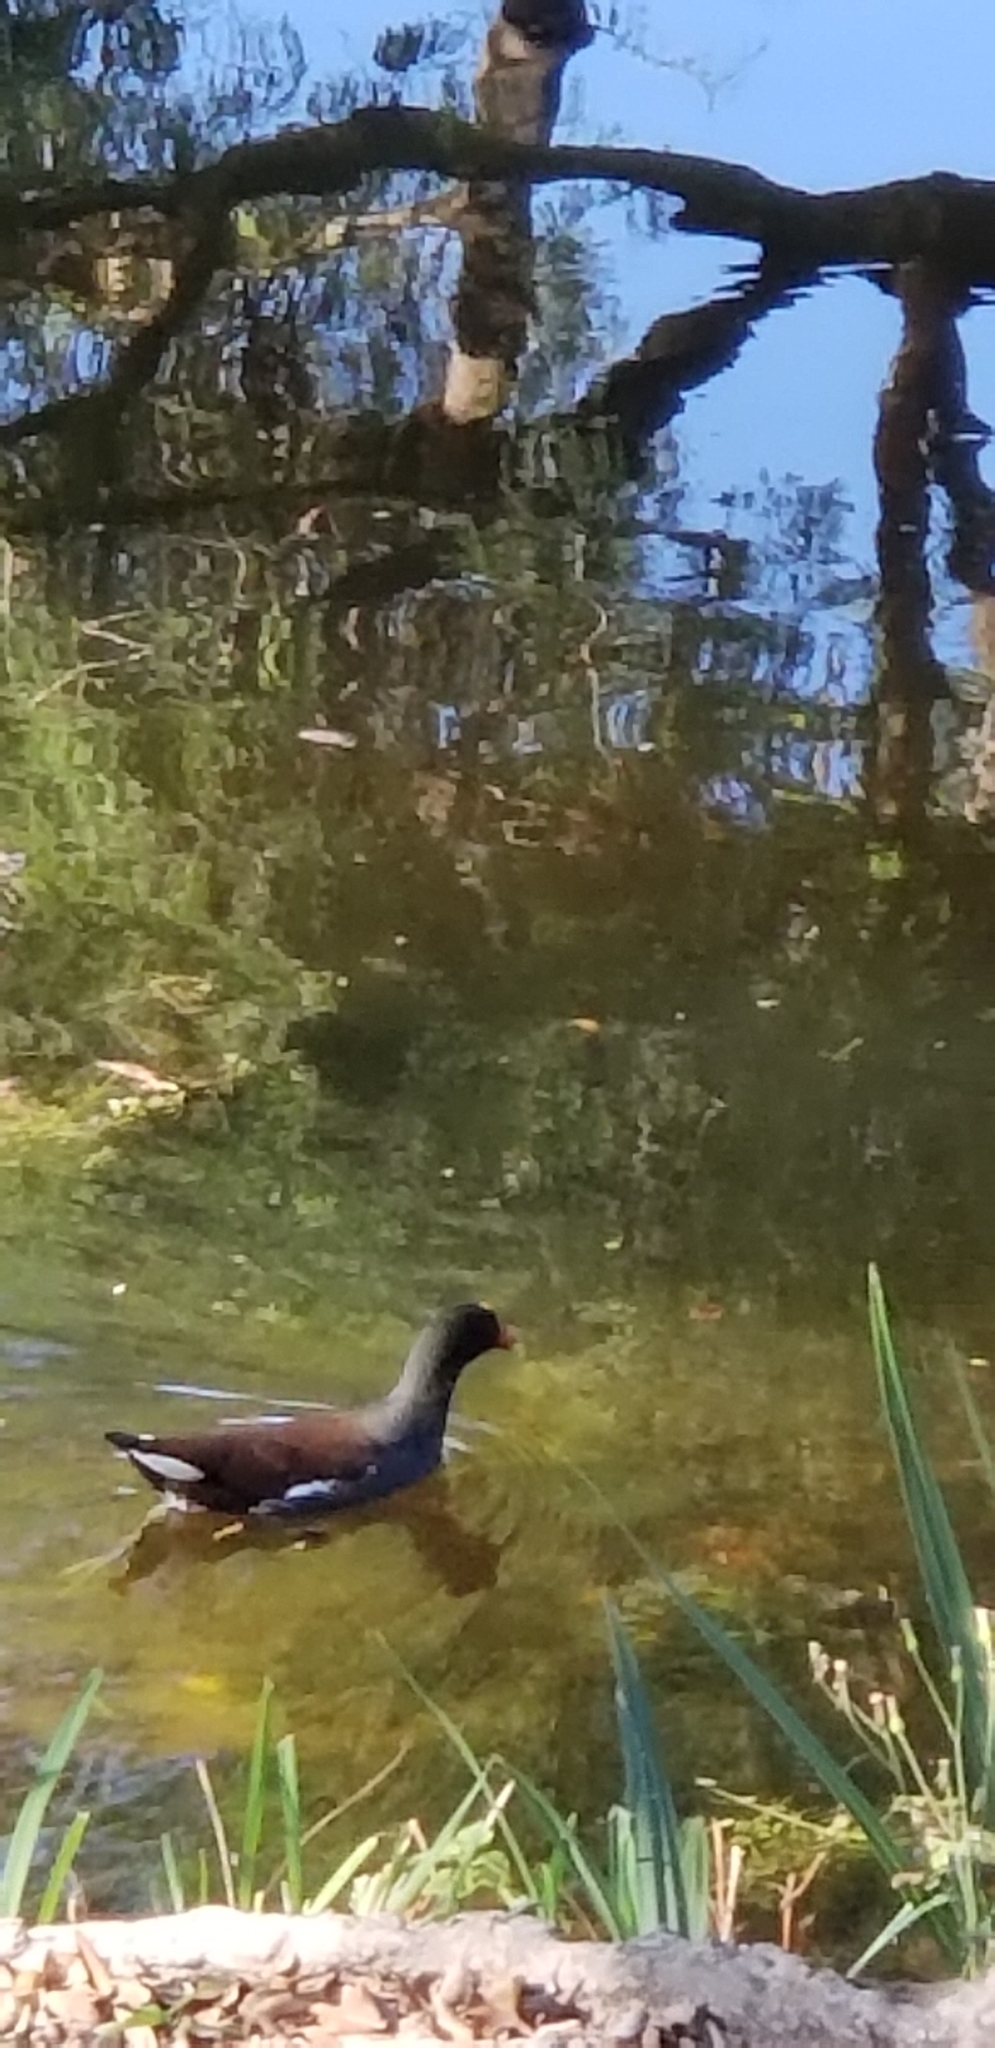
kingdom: Animalia
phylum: Chordata
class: Aves
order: Gruiformes
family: Rallidae
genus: Gallinula
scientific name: Gallinula chloropus
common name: Common moorhen
